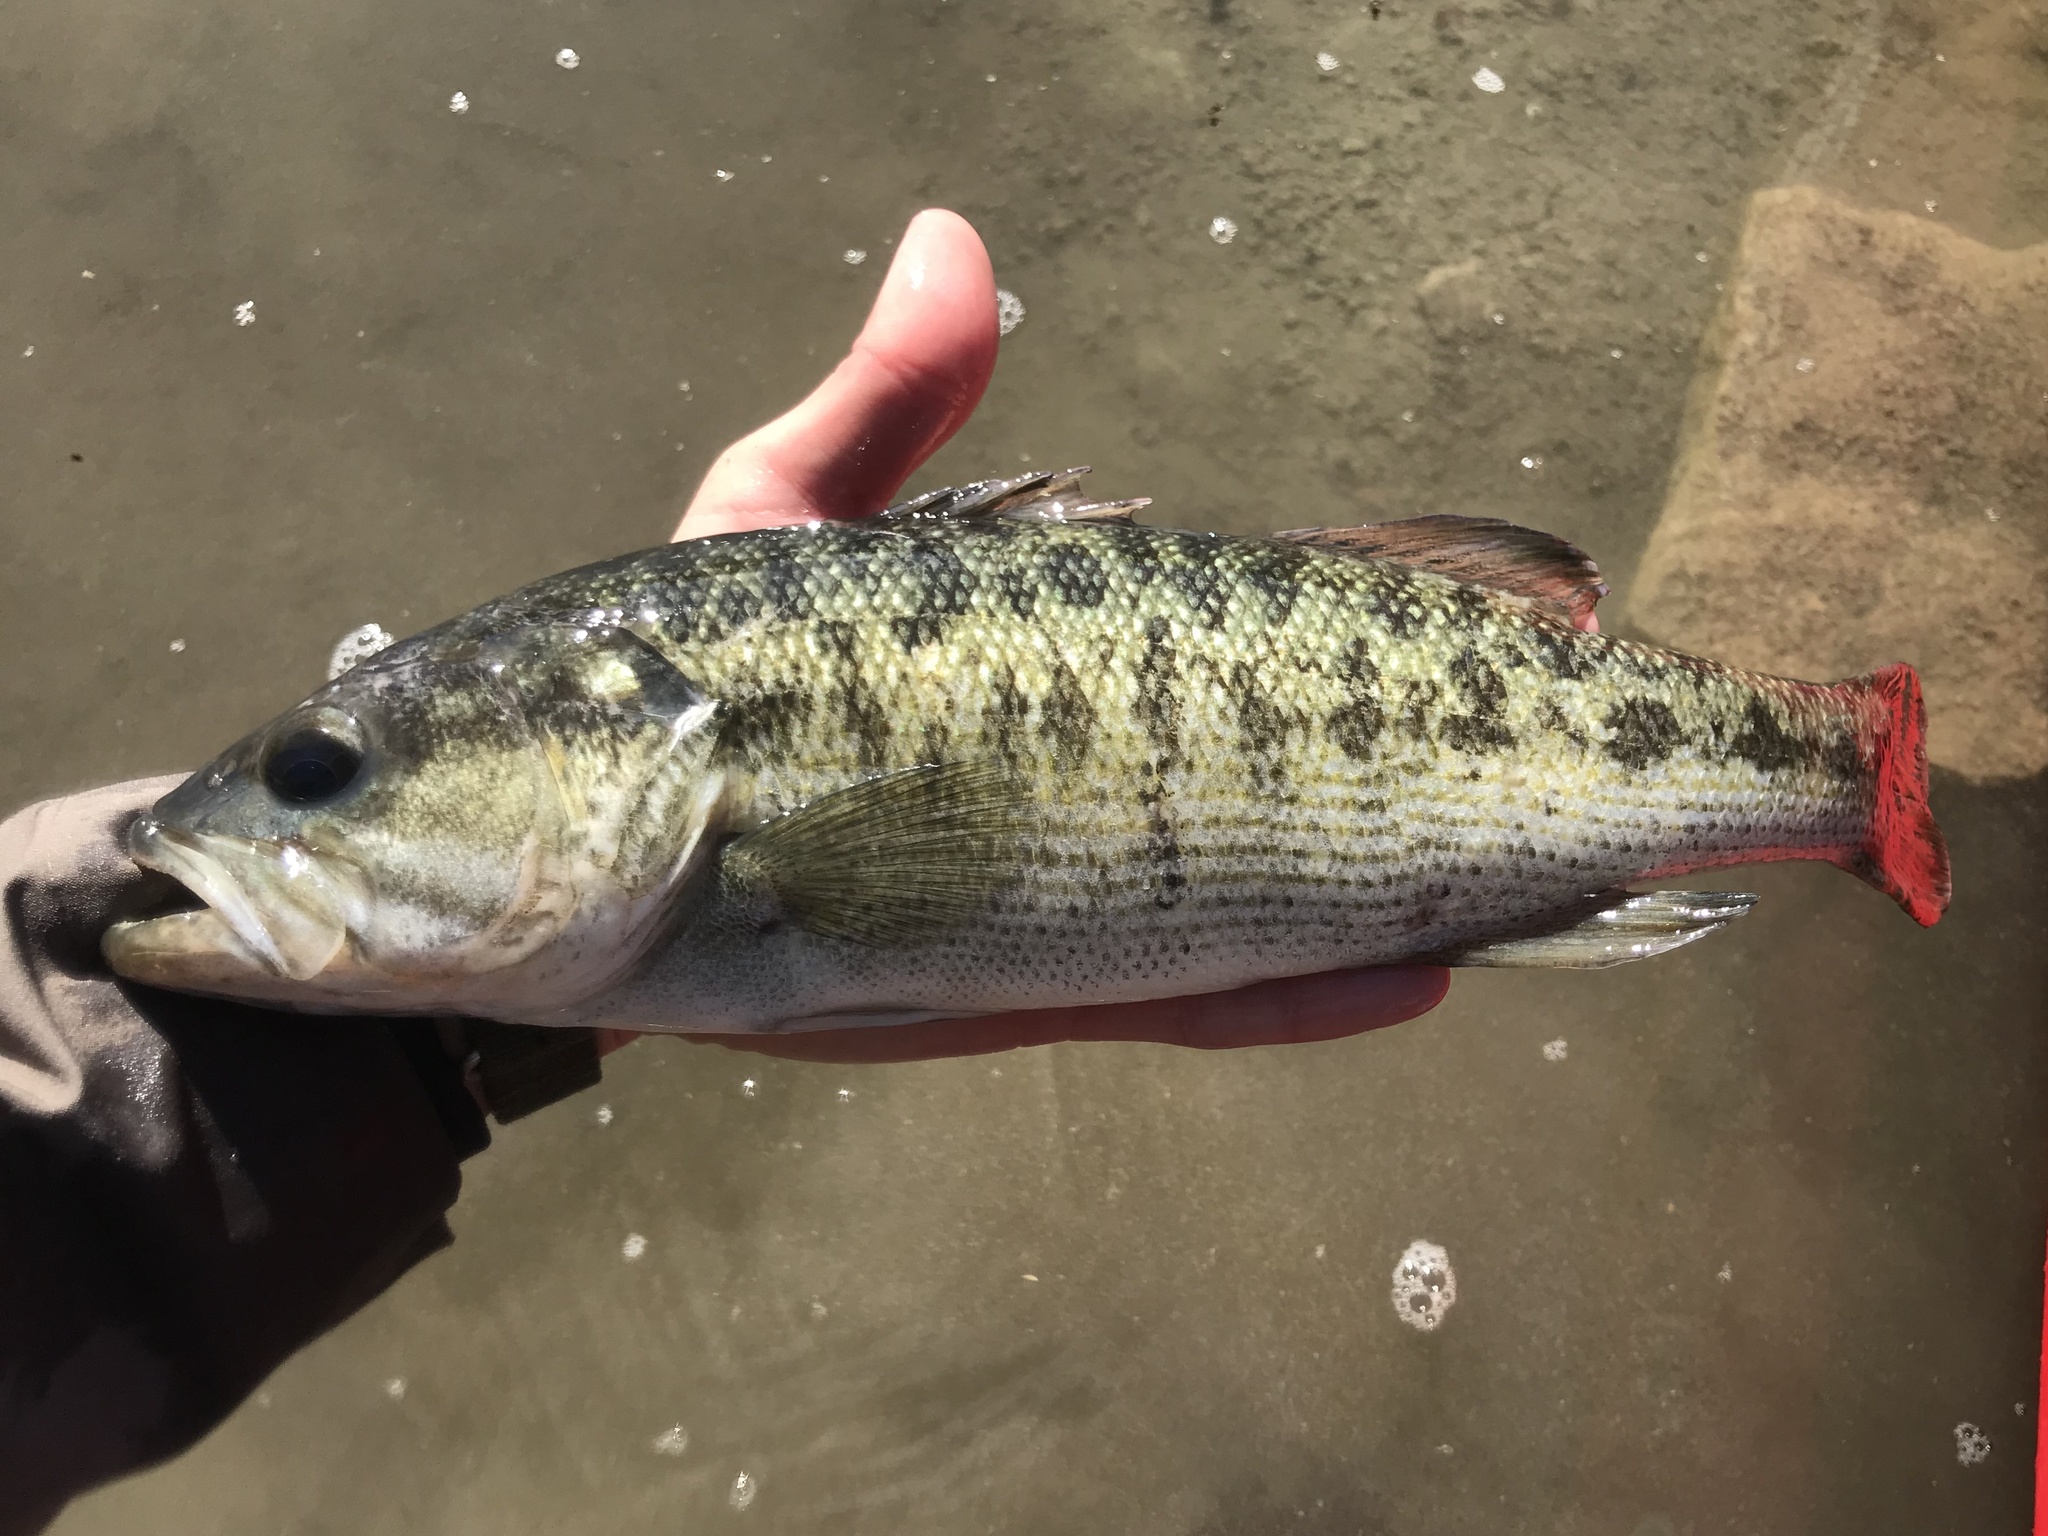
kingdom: Animalia
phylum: Chordata
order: Perciformes
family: Centrarchidae
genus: Micropterus
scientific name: Micropterus treculii
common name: Guadalupe bass
